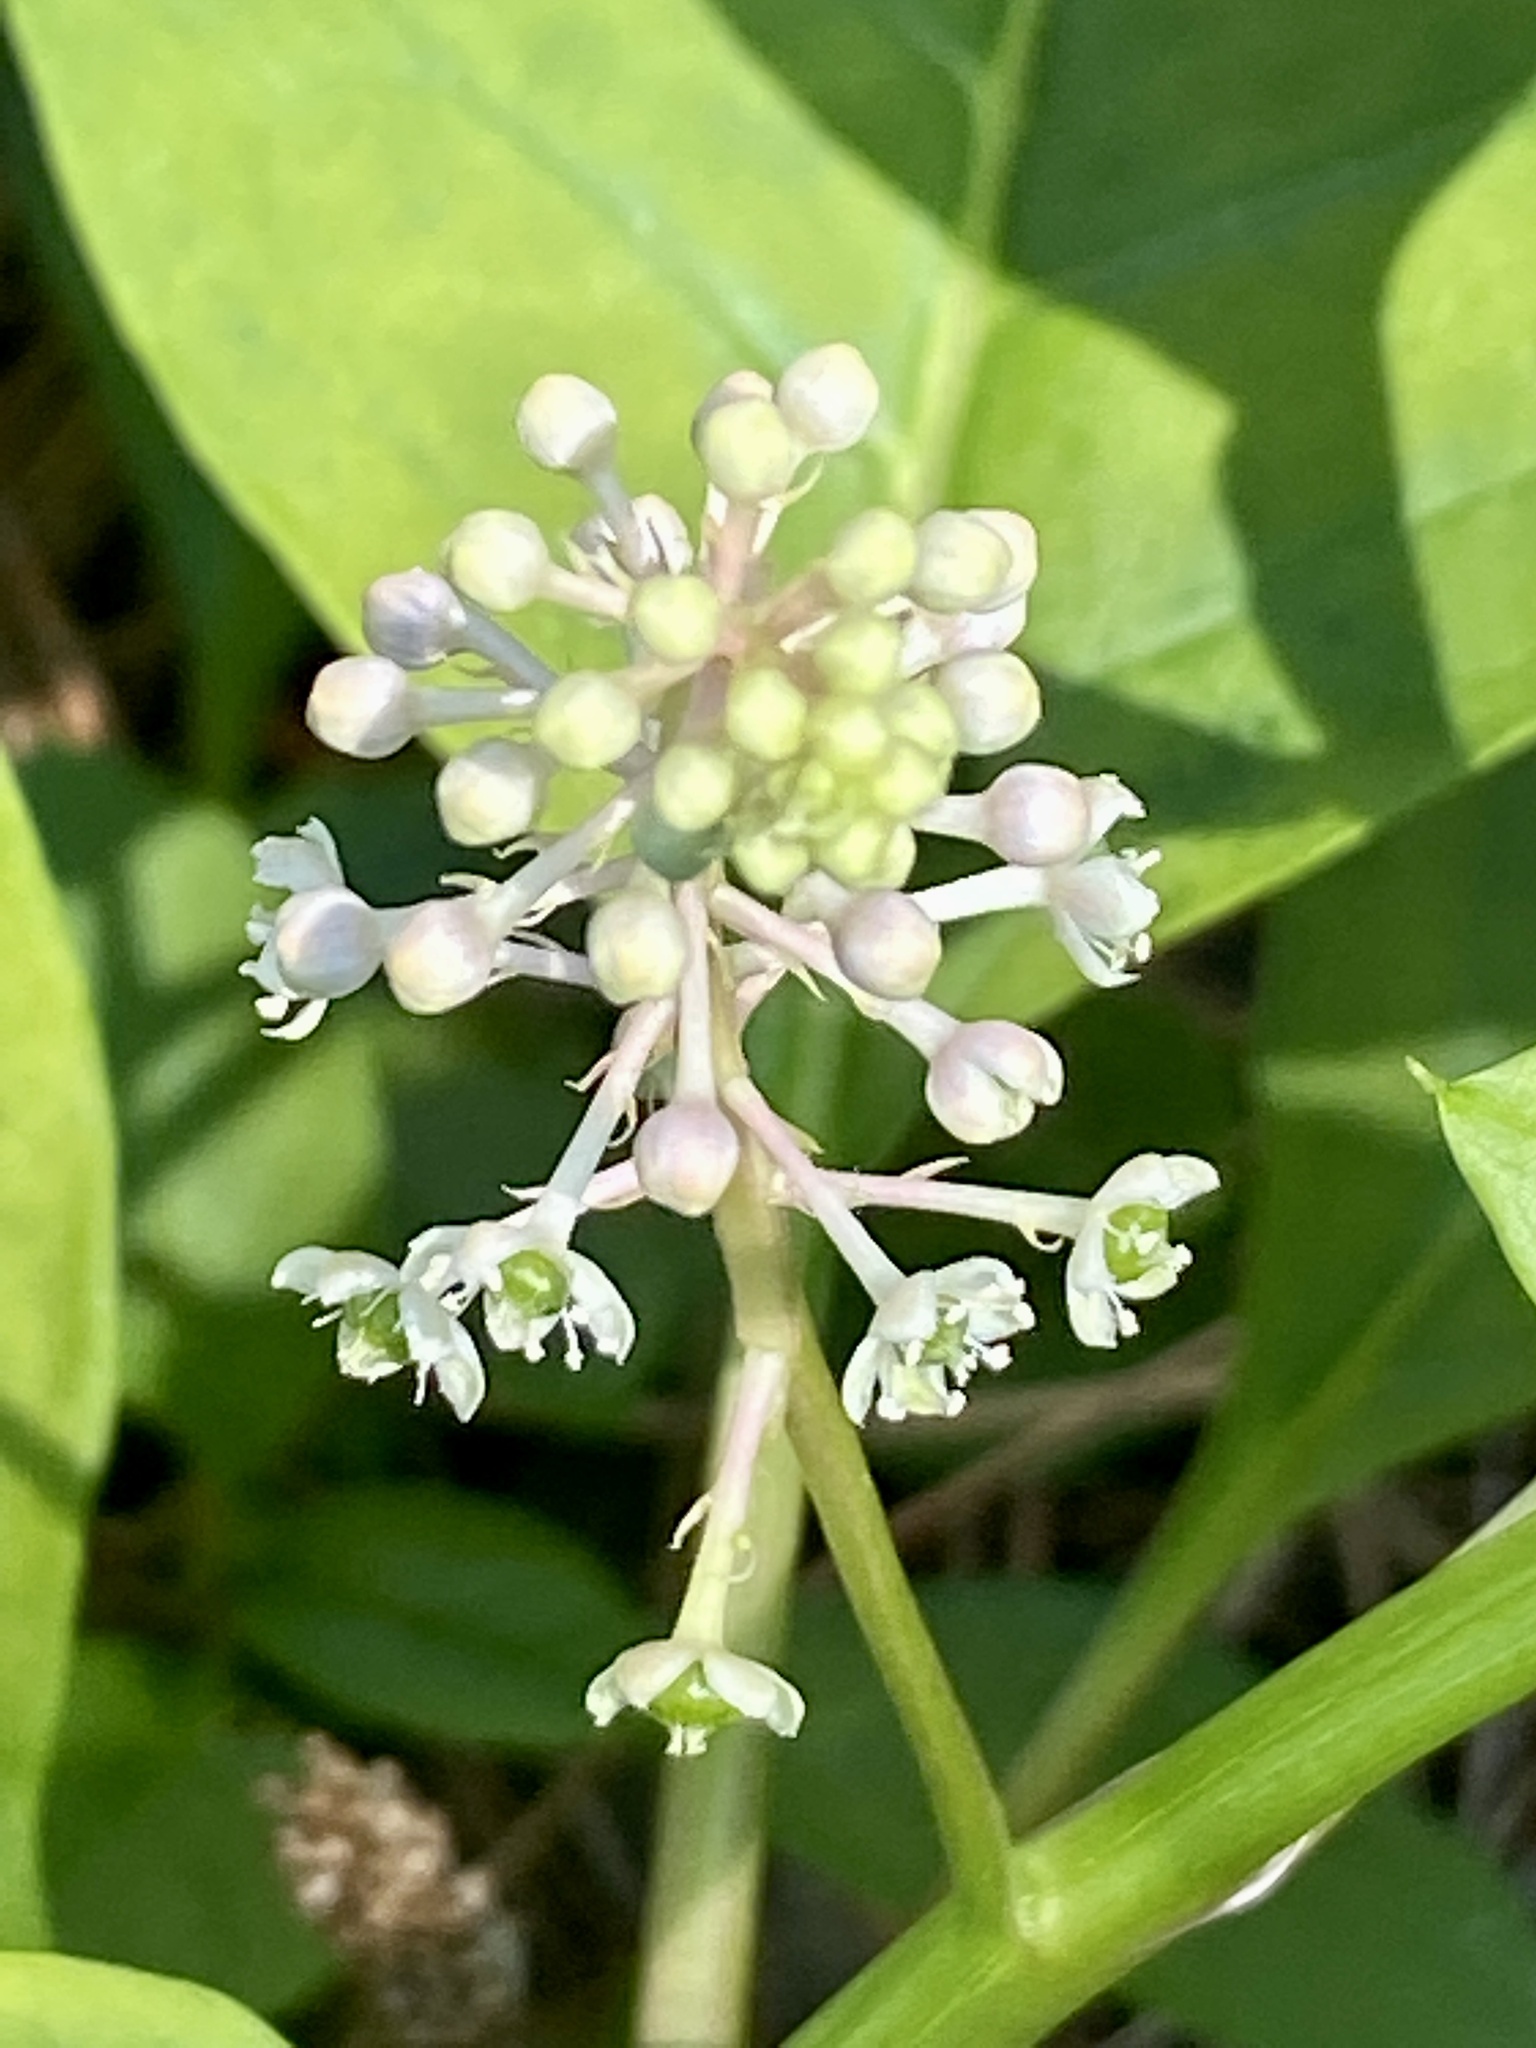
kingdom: Plantae
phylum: Tracheophyta
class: Magnoliopsida
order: Caryophyllales
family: Phytolaccaceae
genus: Phytolacca
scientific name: Phytolacca americana
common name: American pokeweed
